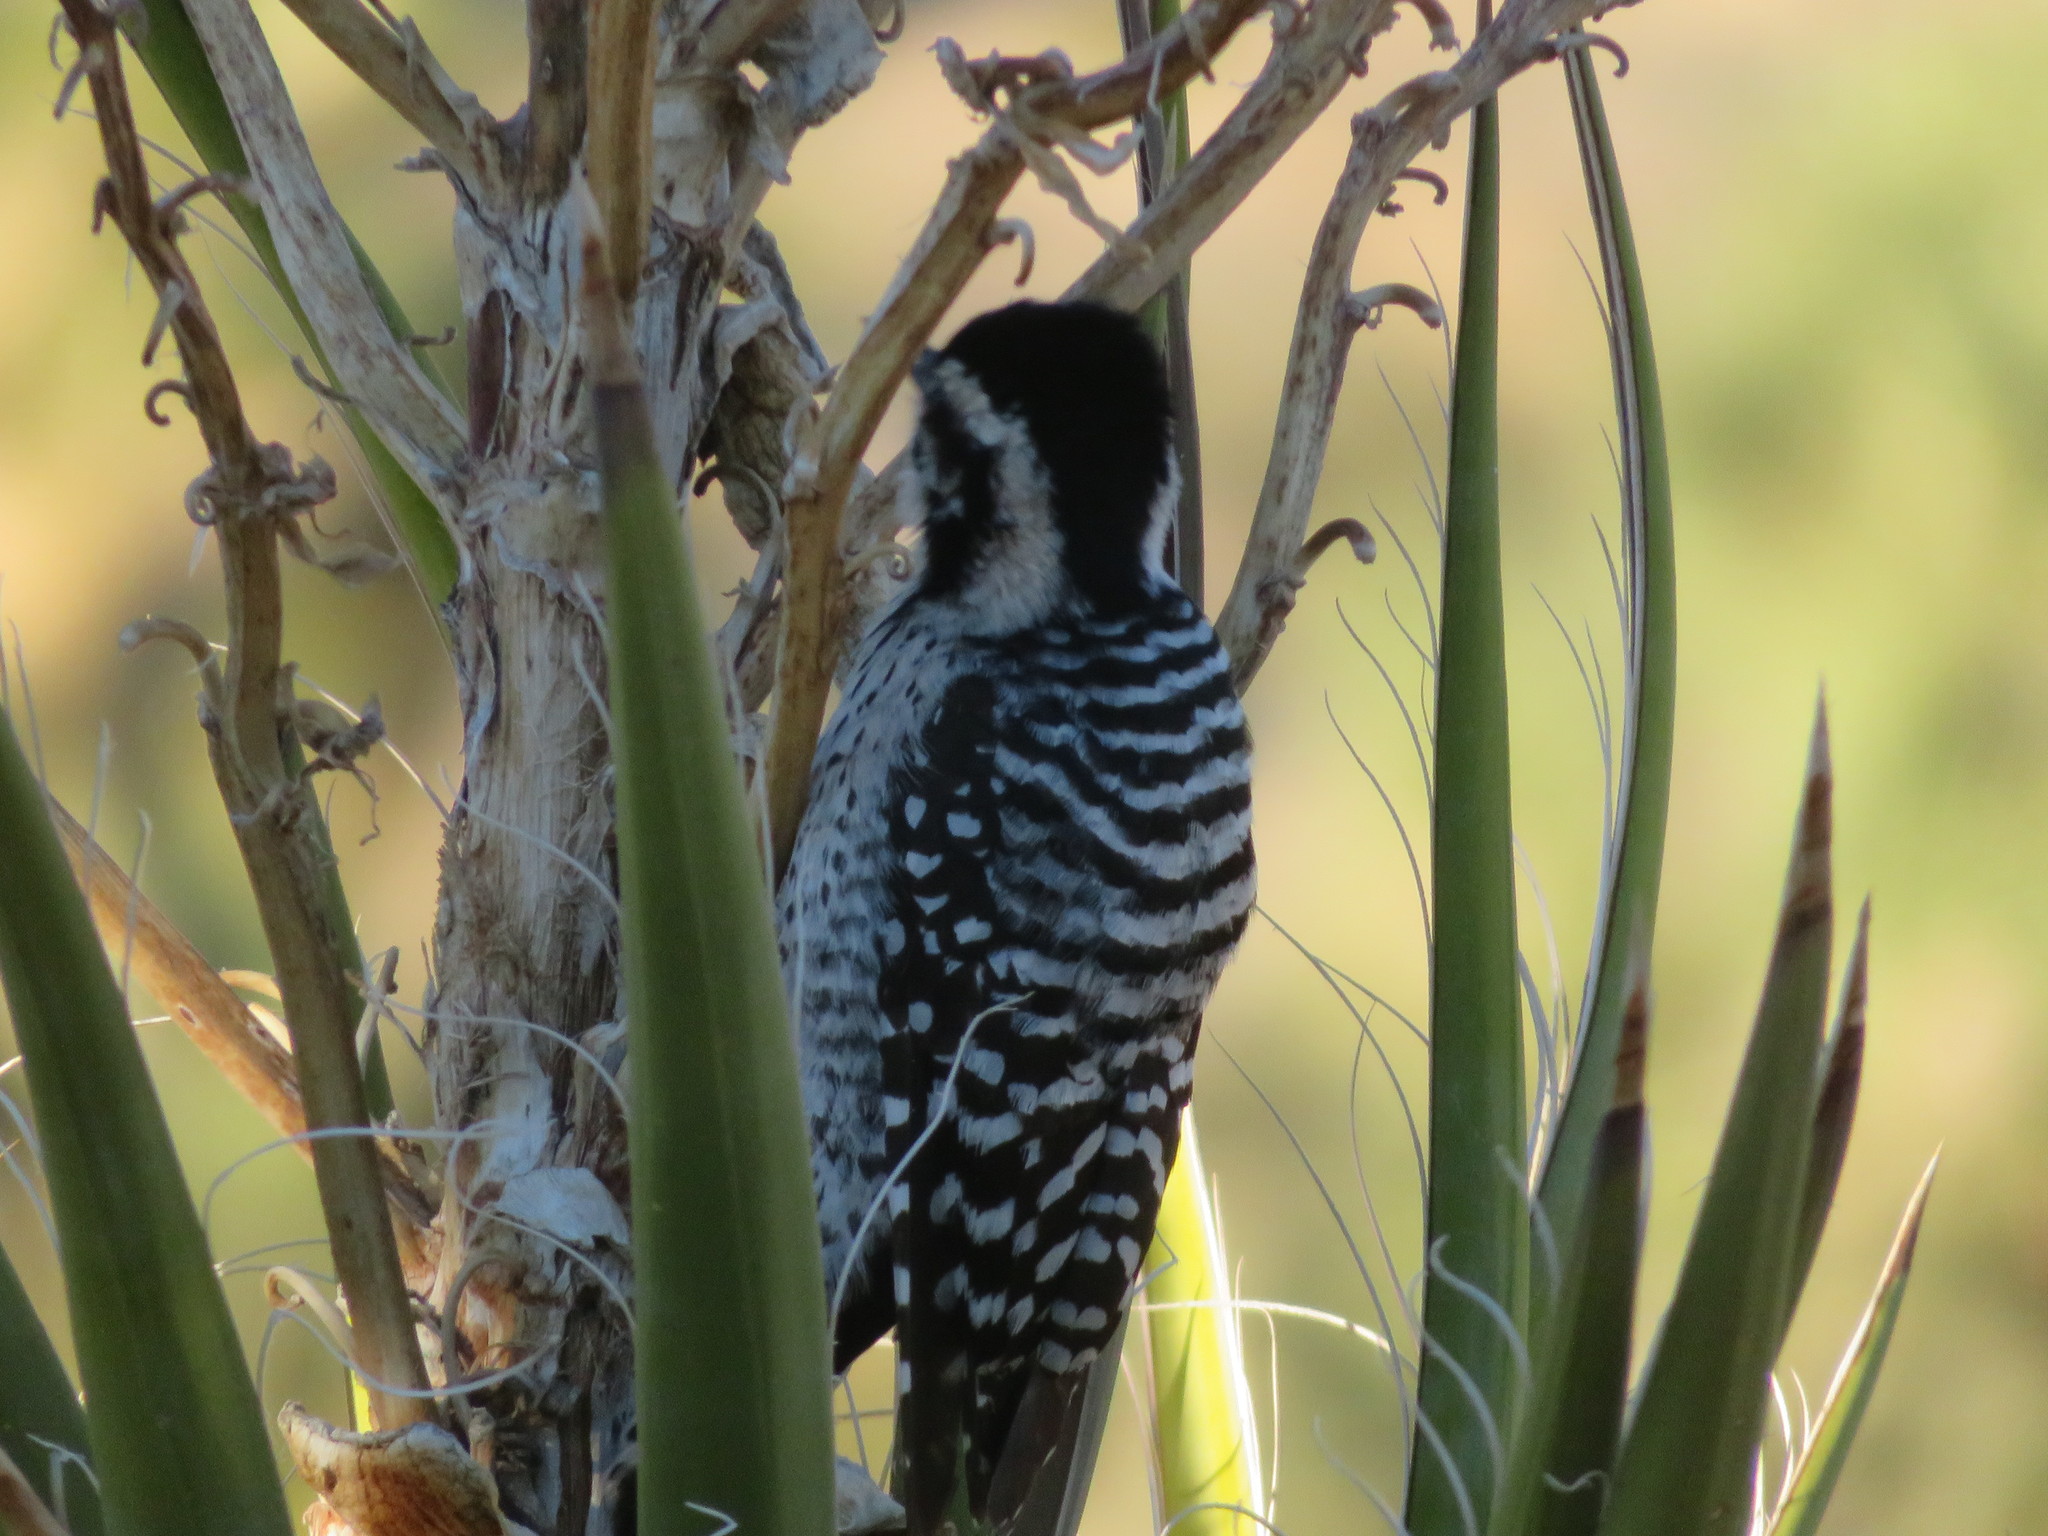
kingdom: Animalia
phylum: Chordata
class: Aves
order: Piciformes
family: Picidae
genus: Dryobates
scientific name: Dryobates scalaris
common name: Ladder-backed woodpecker
